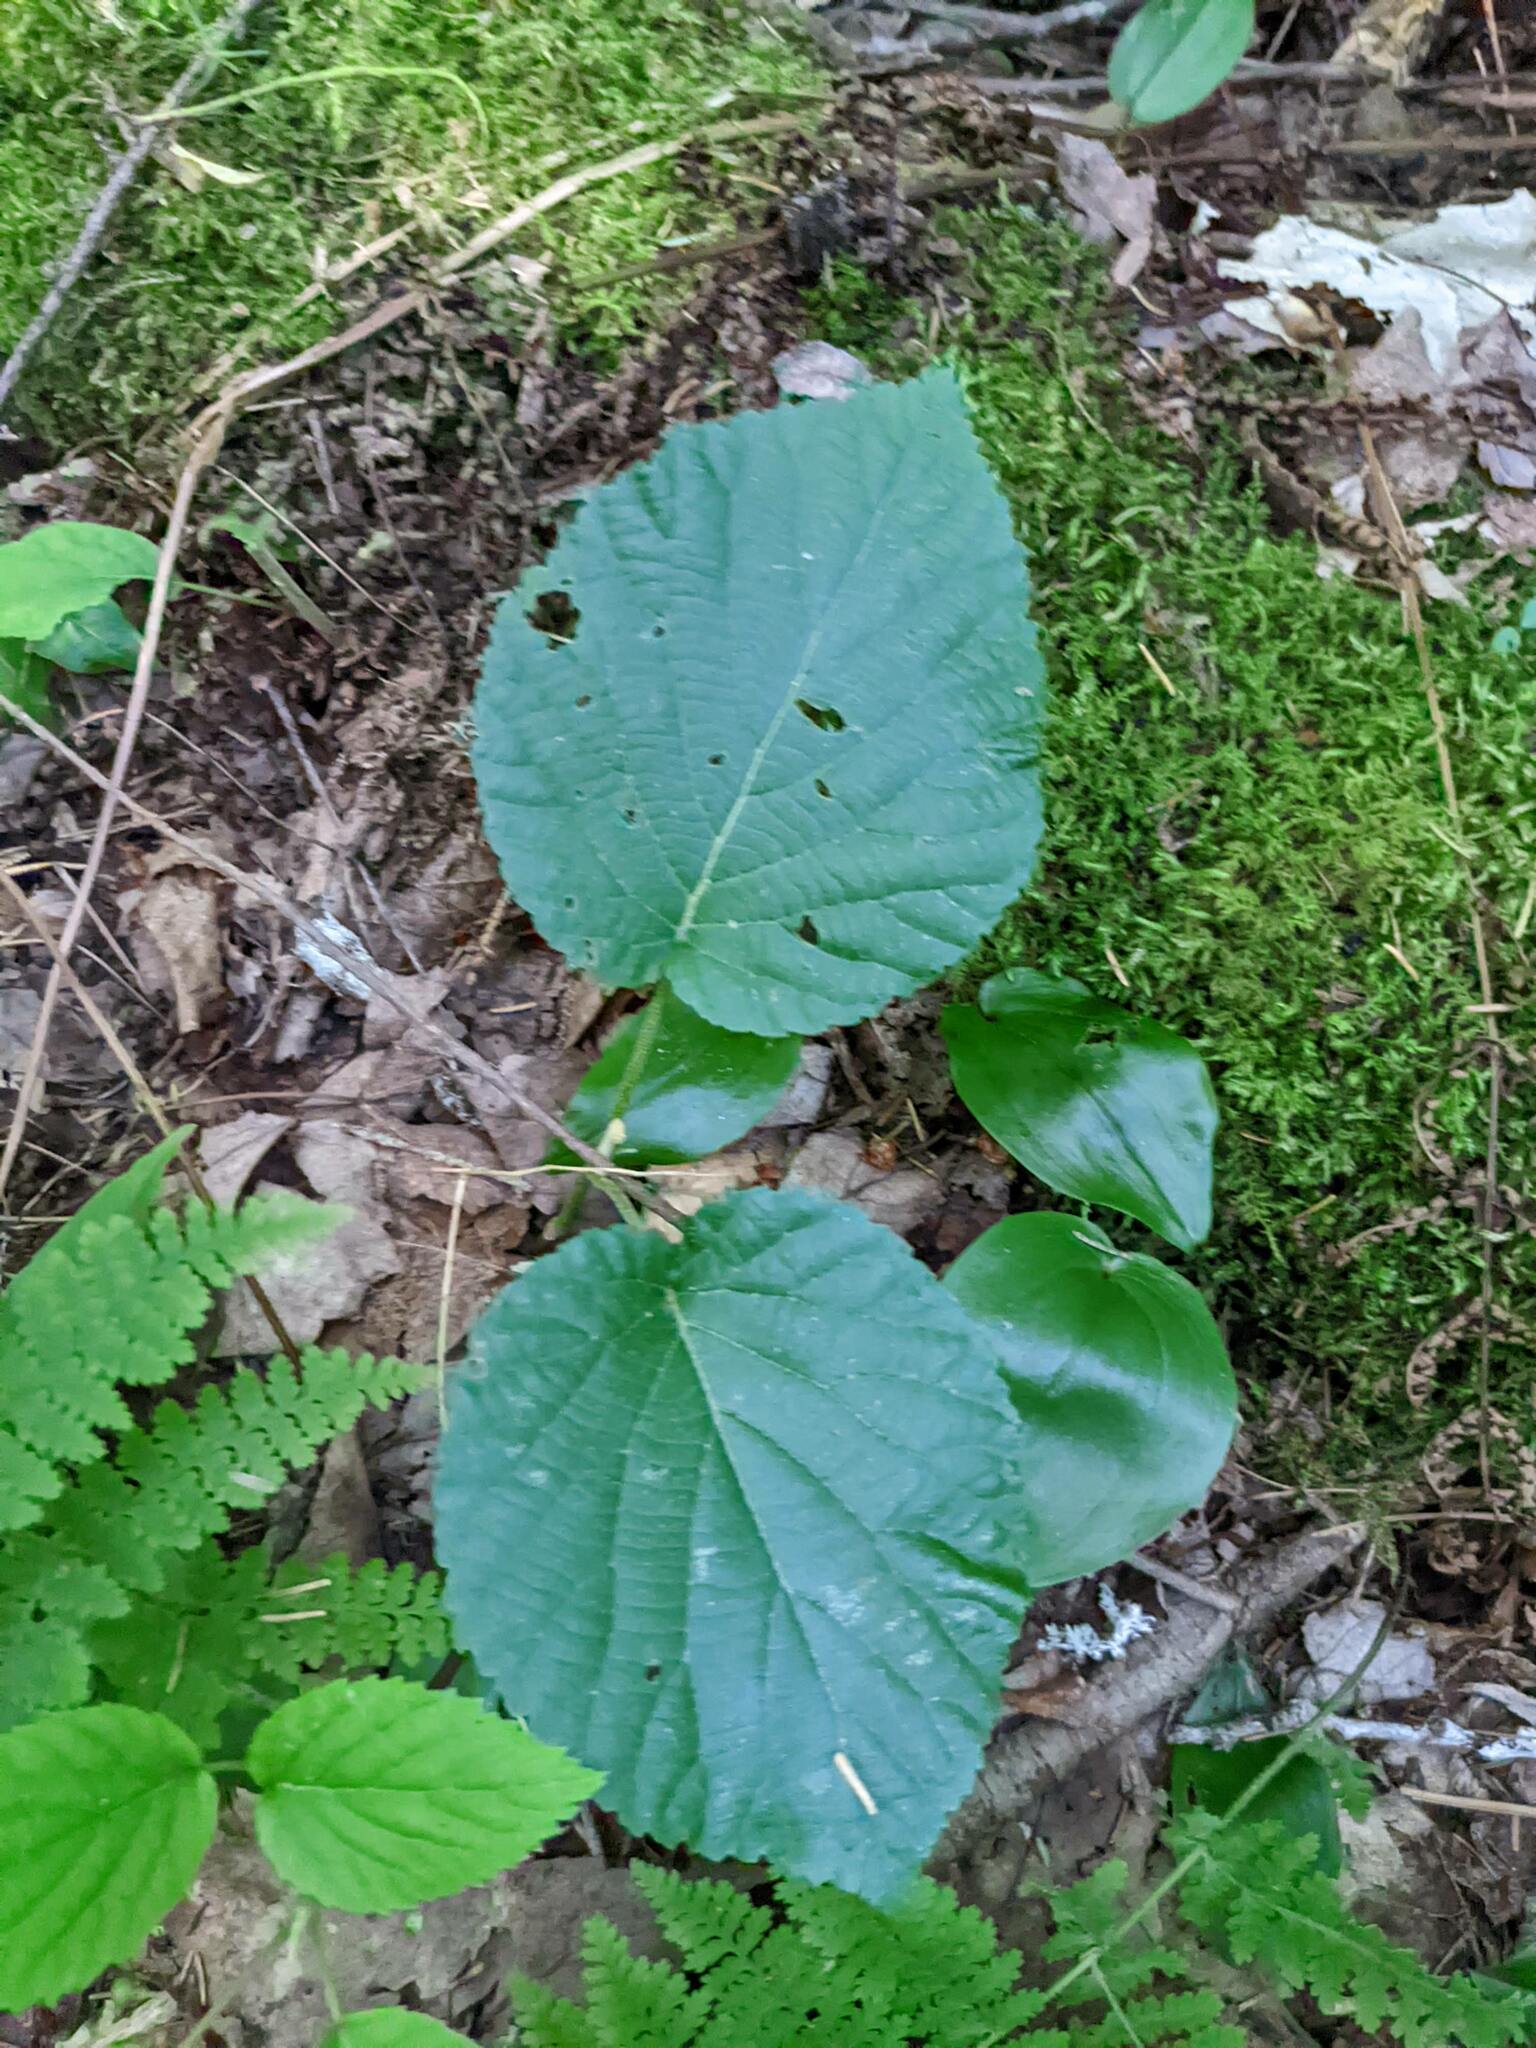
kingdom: Plantae
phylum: Tracheophyta
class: Magnoliopsida
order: Dipsacales
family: Viburnaceae
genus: Viburnum
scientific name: Viburnum lantanoides
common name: Hobblebush
